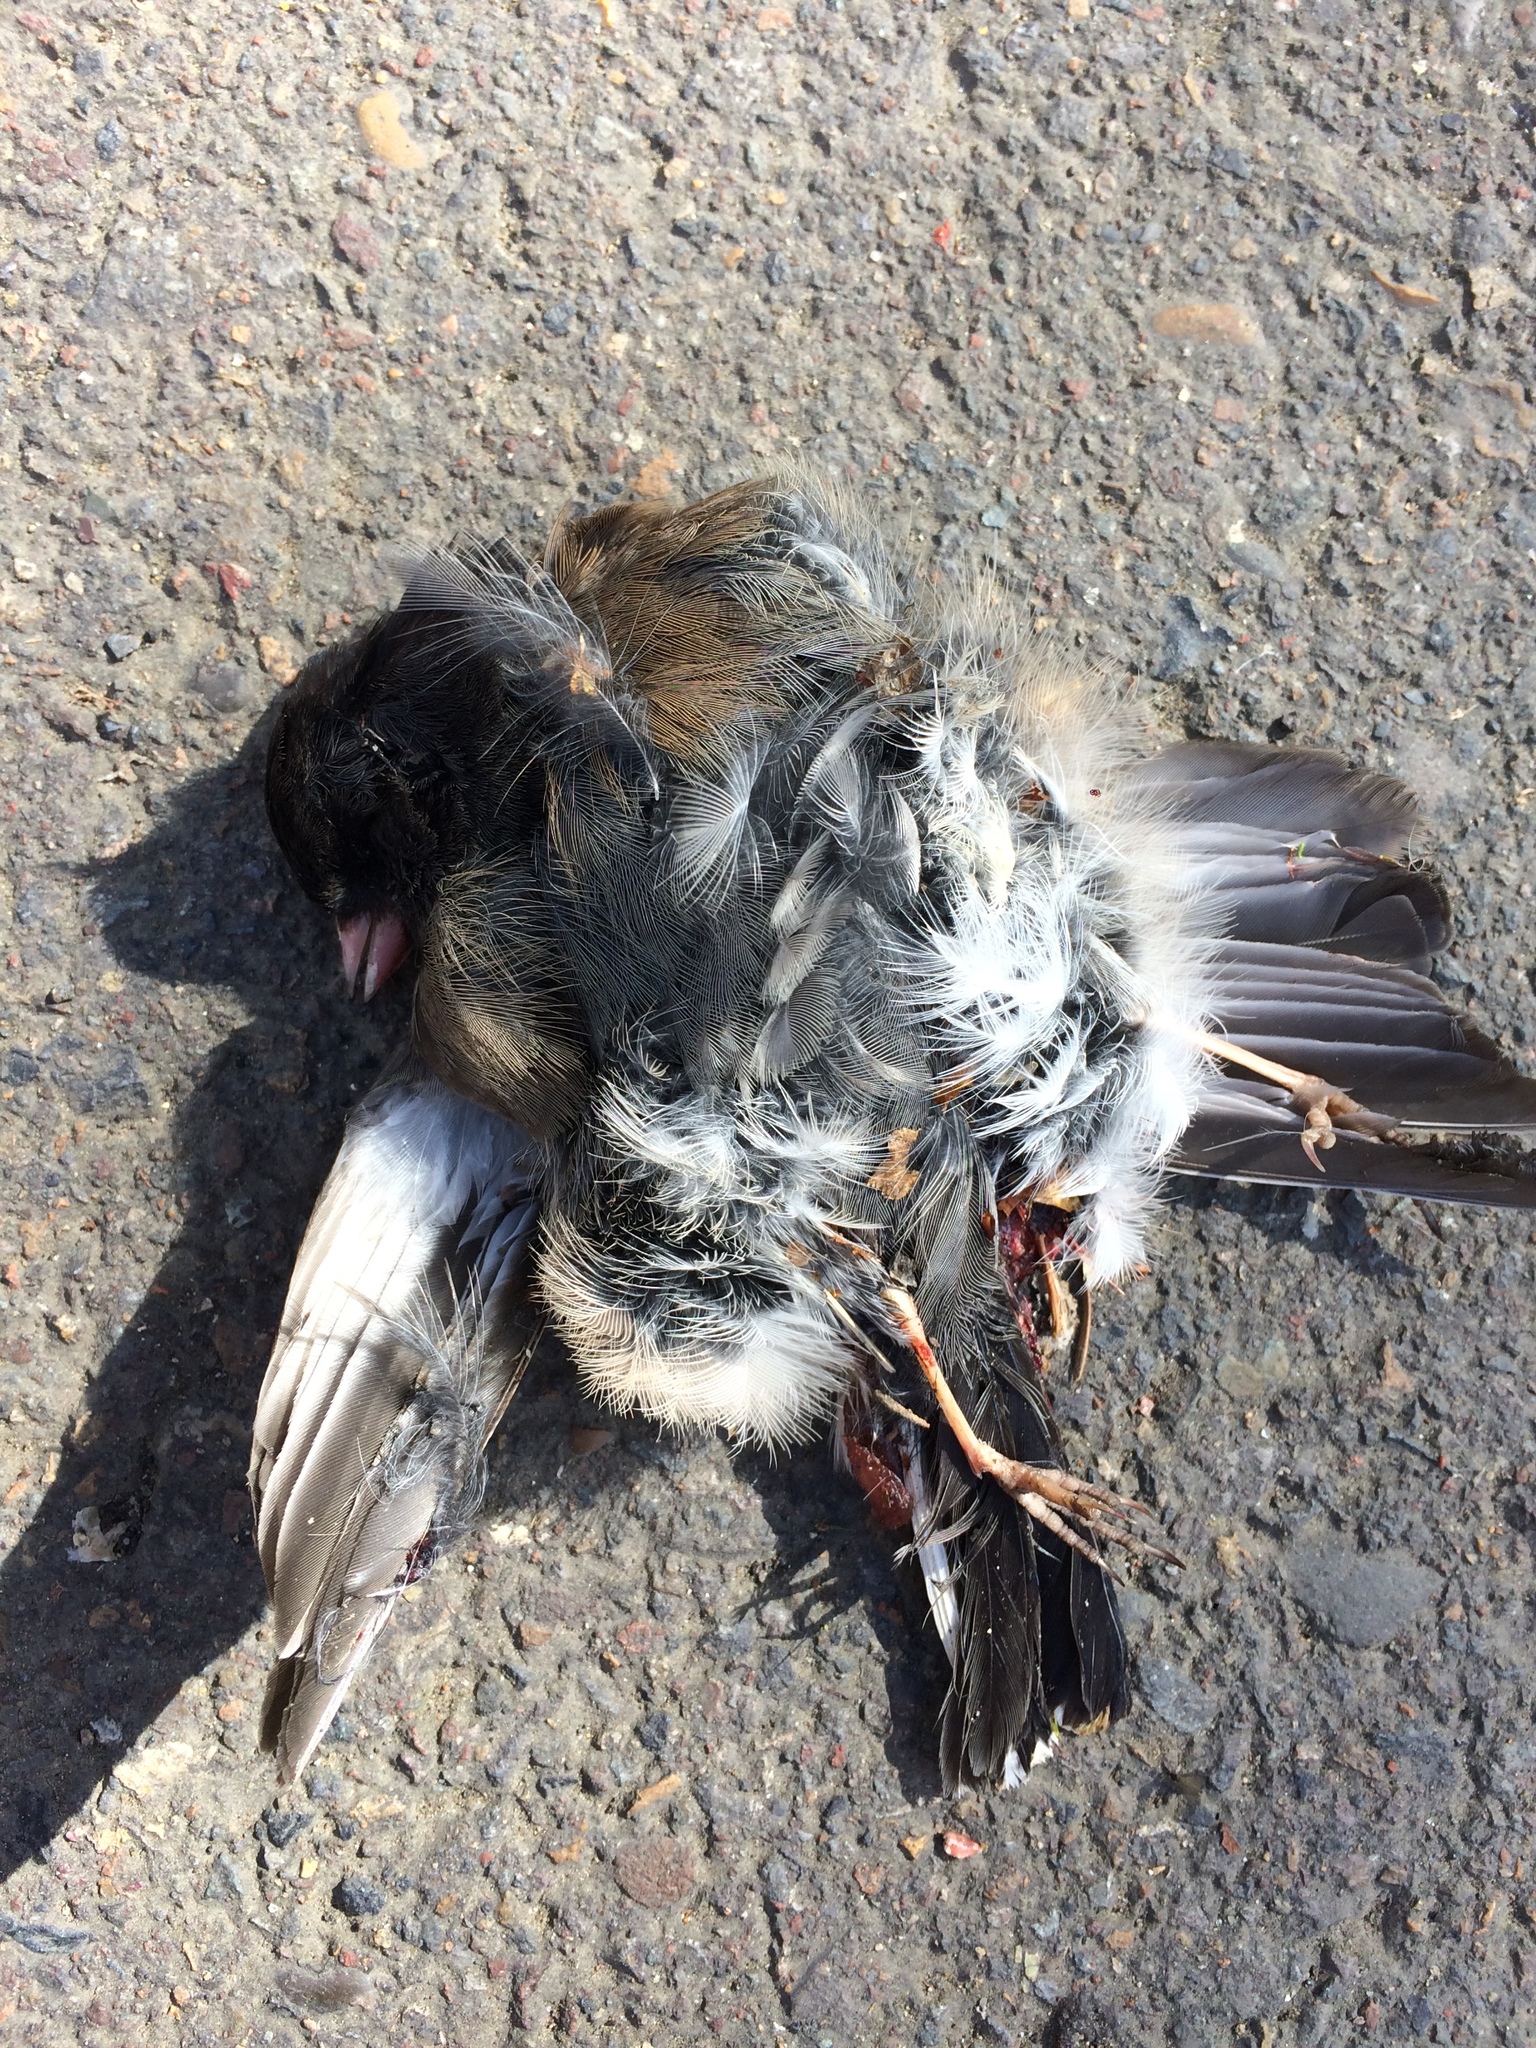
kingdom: Animalia
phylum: Chordata
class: Aves
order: Passeriformes
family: Passerellidae
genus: Junco
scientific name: Junco hyemalis
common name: Dark-eyed junco
